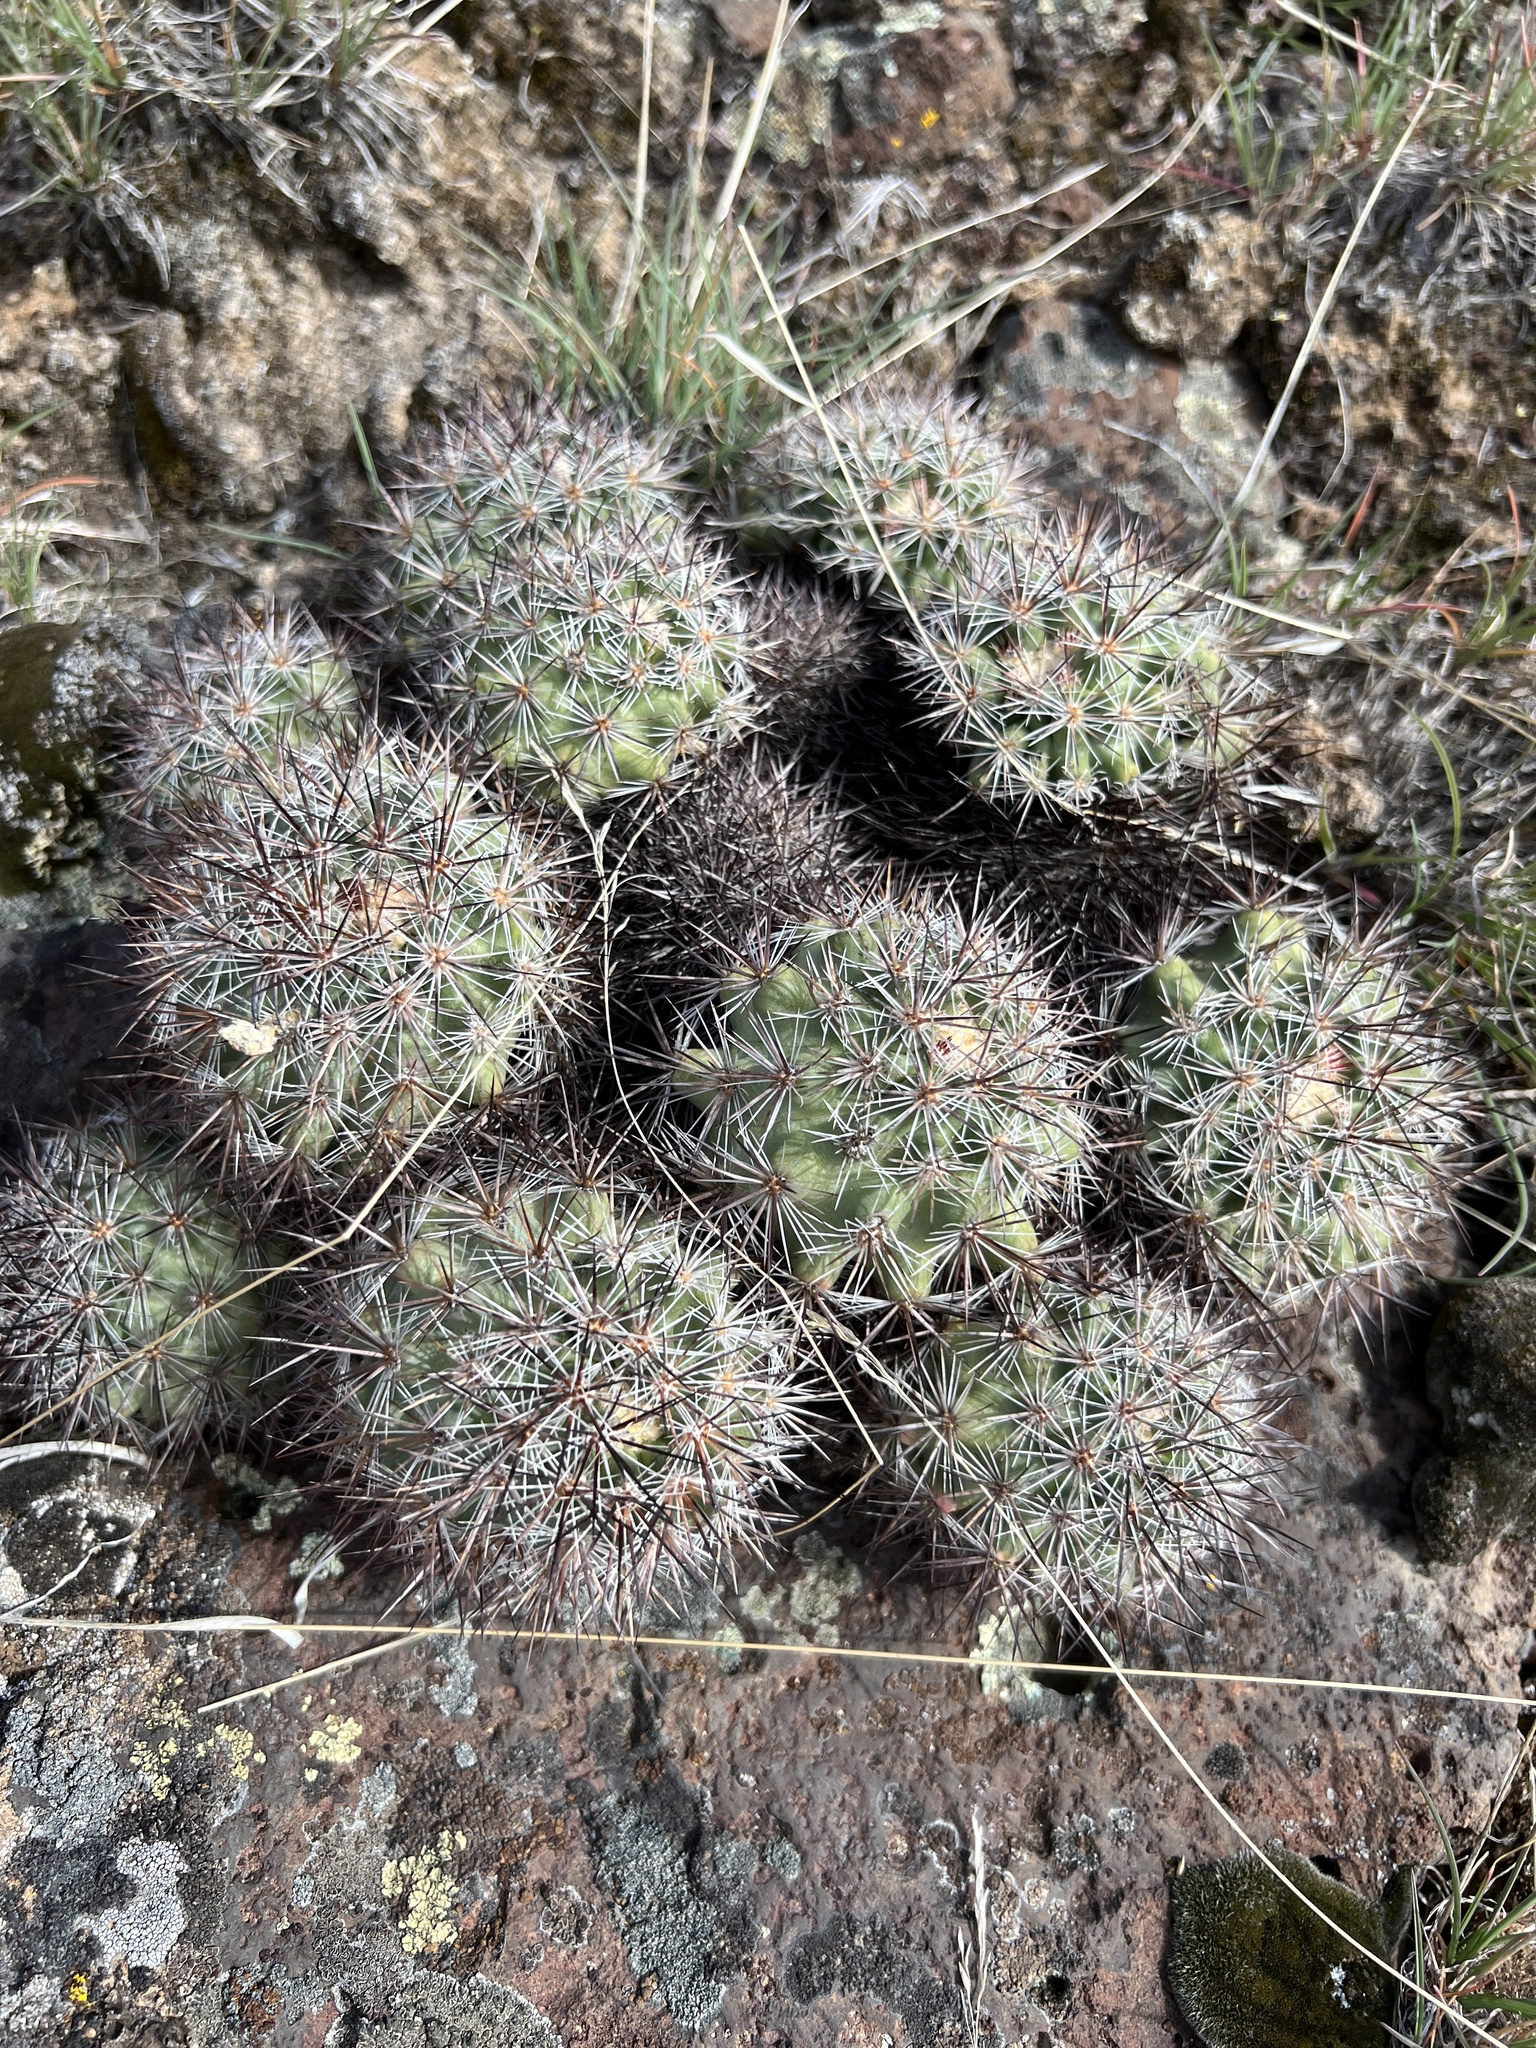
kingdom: Plantae
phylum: Tracheophyta
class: Magnoliopsida
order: Caryophyllales
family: Cactaceae
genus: Pediocactus
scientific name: Pediocactus nigrispinus
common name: Simpson's hedgehog cactus
